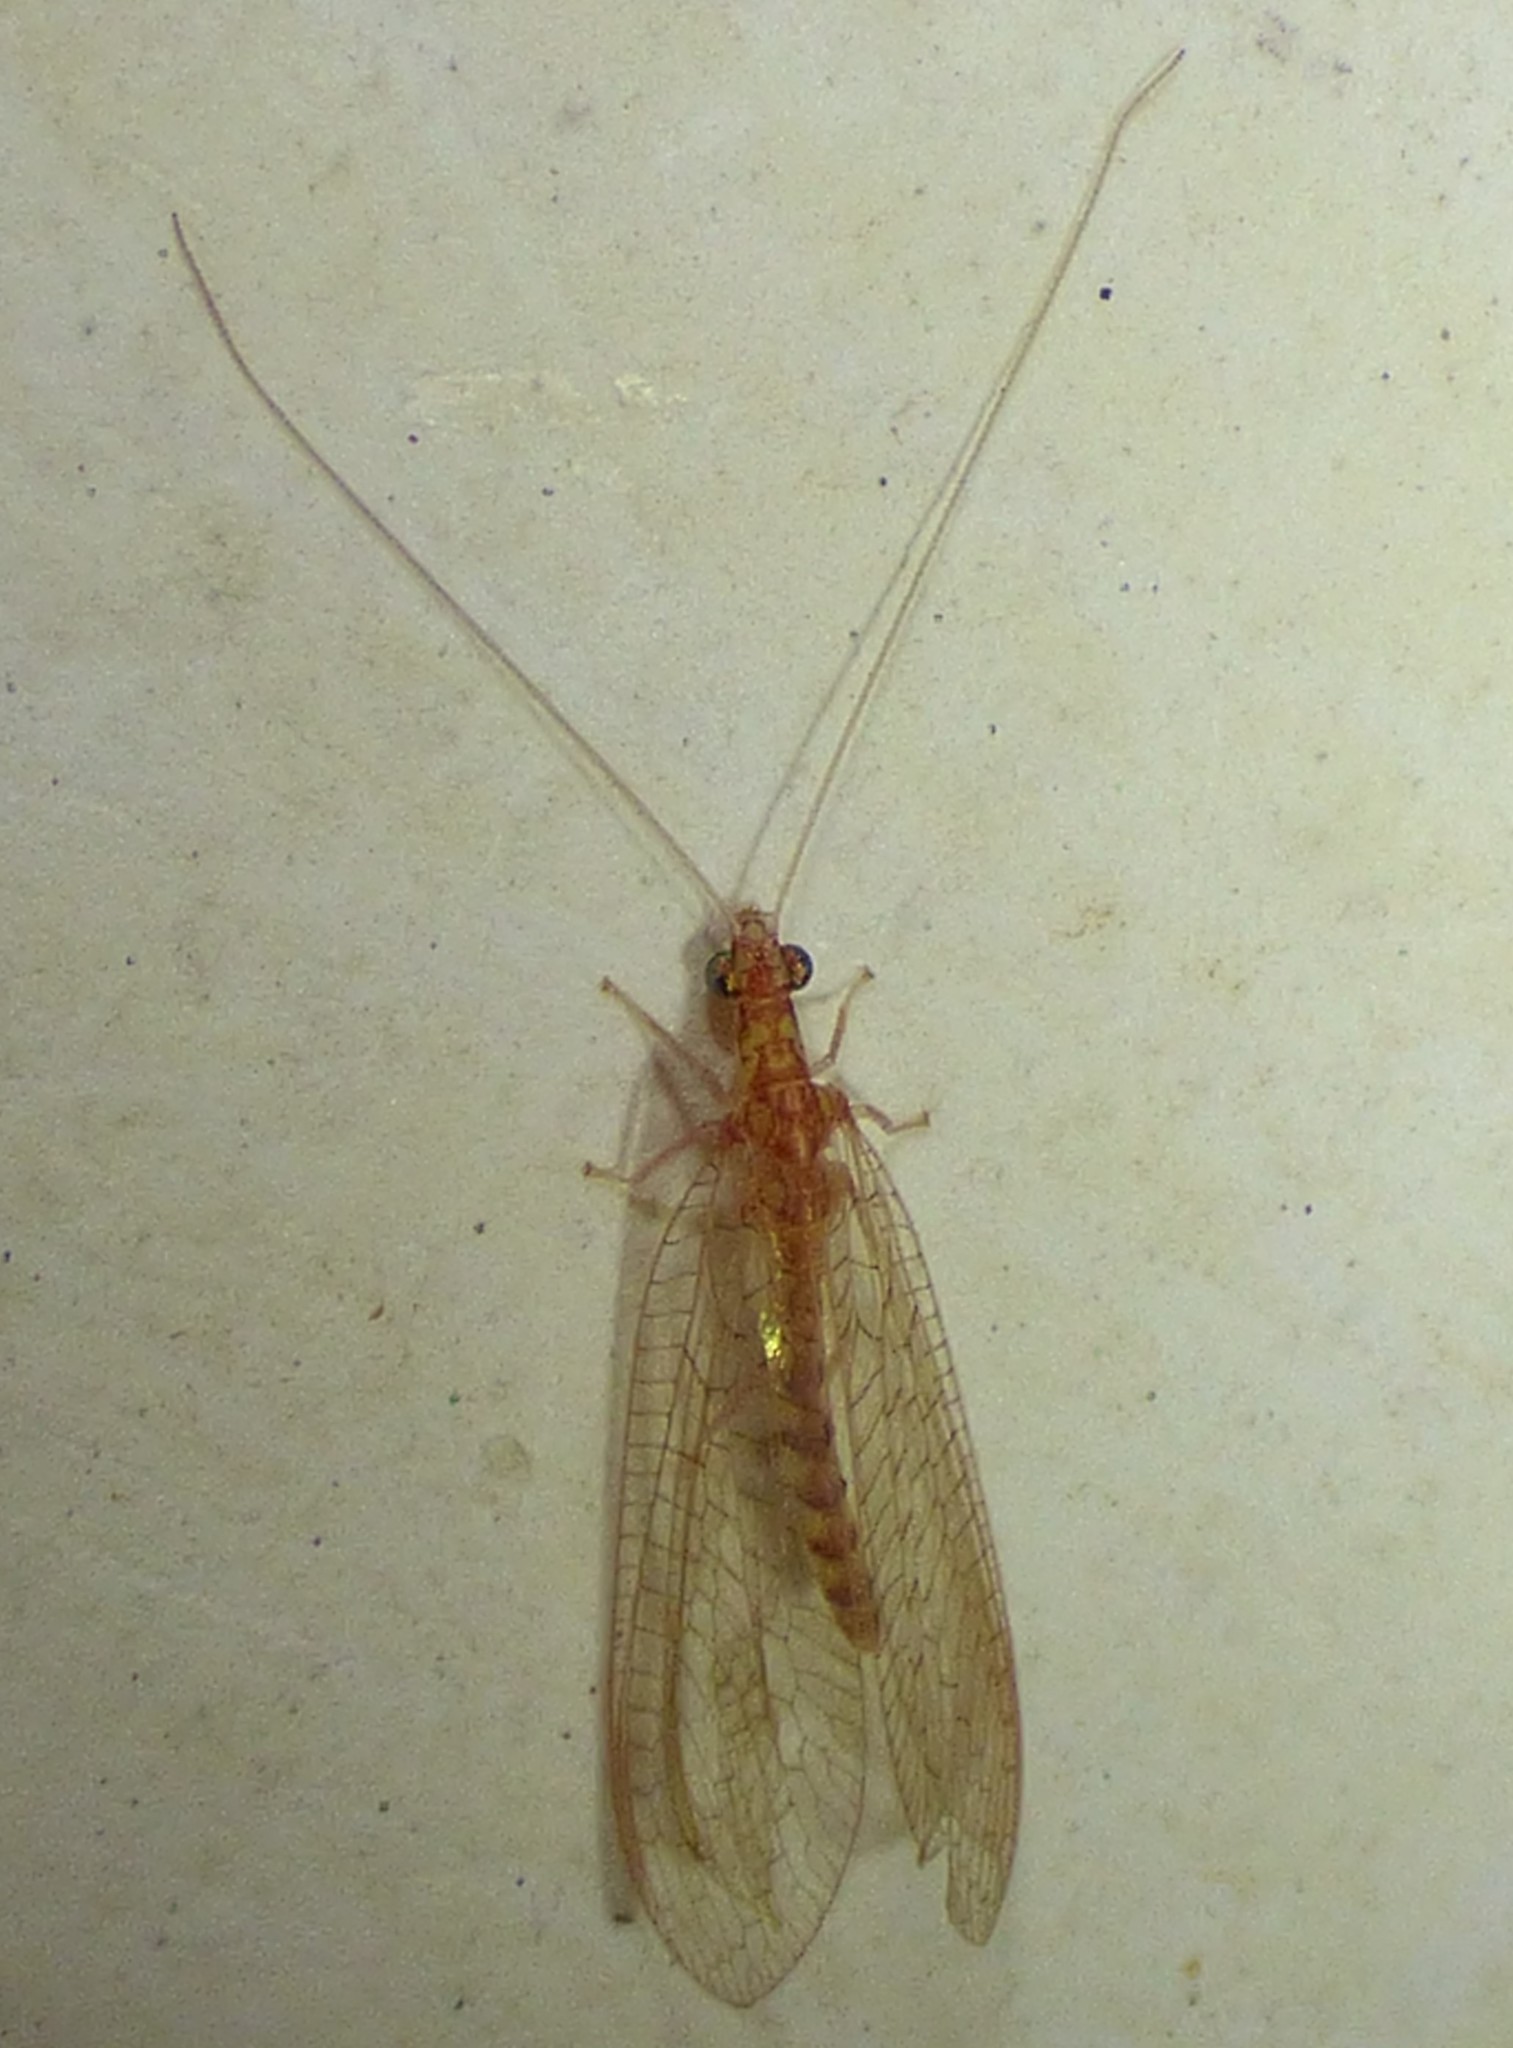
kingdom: Animalia
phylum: Arthropoda
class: Insecta
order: Neuroptera
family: Chrysopidae
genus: Chrysoperla
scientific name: Chrysoperla
